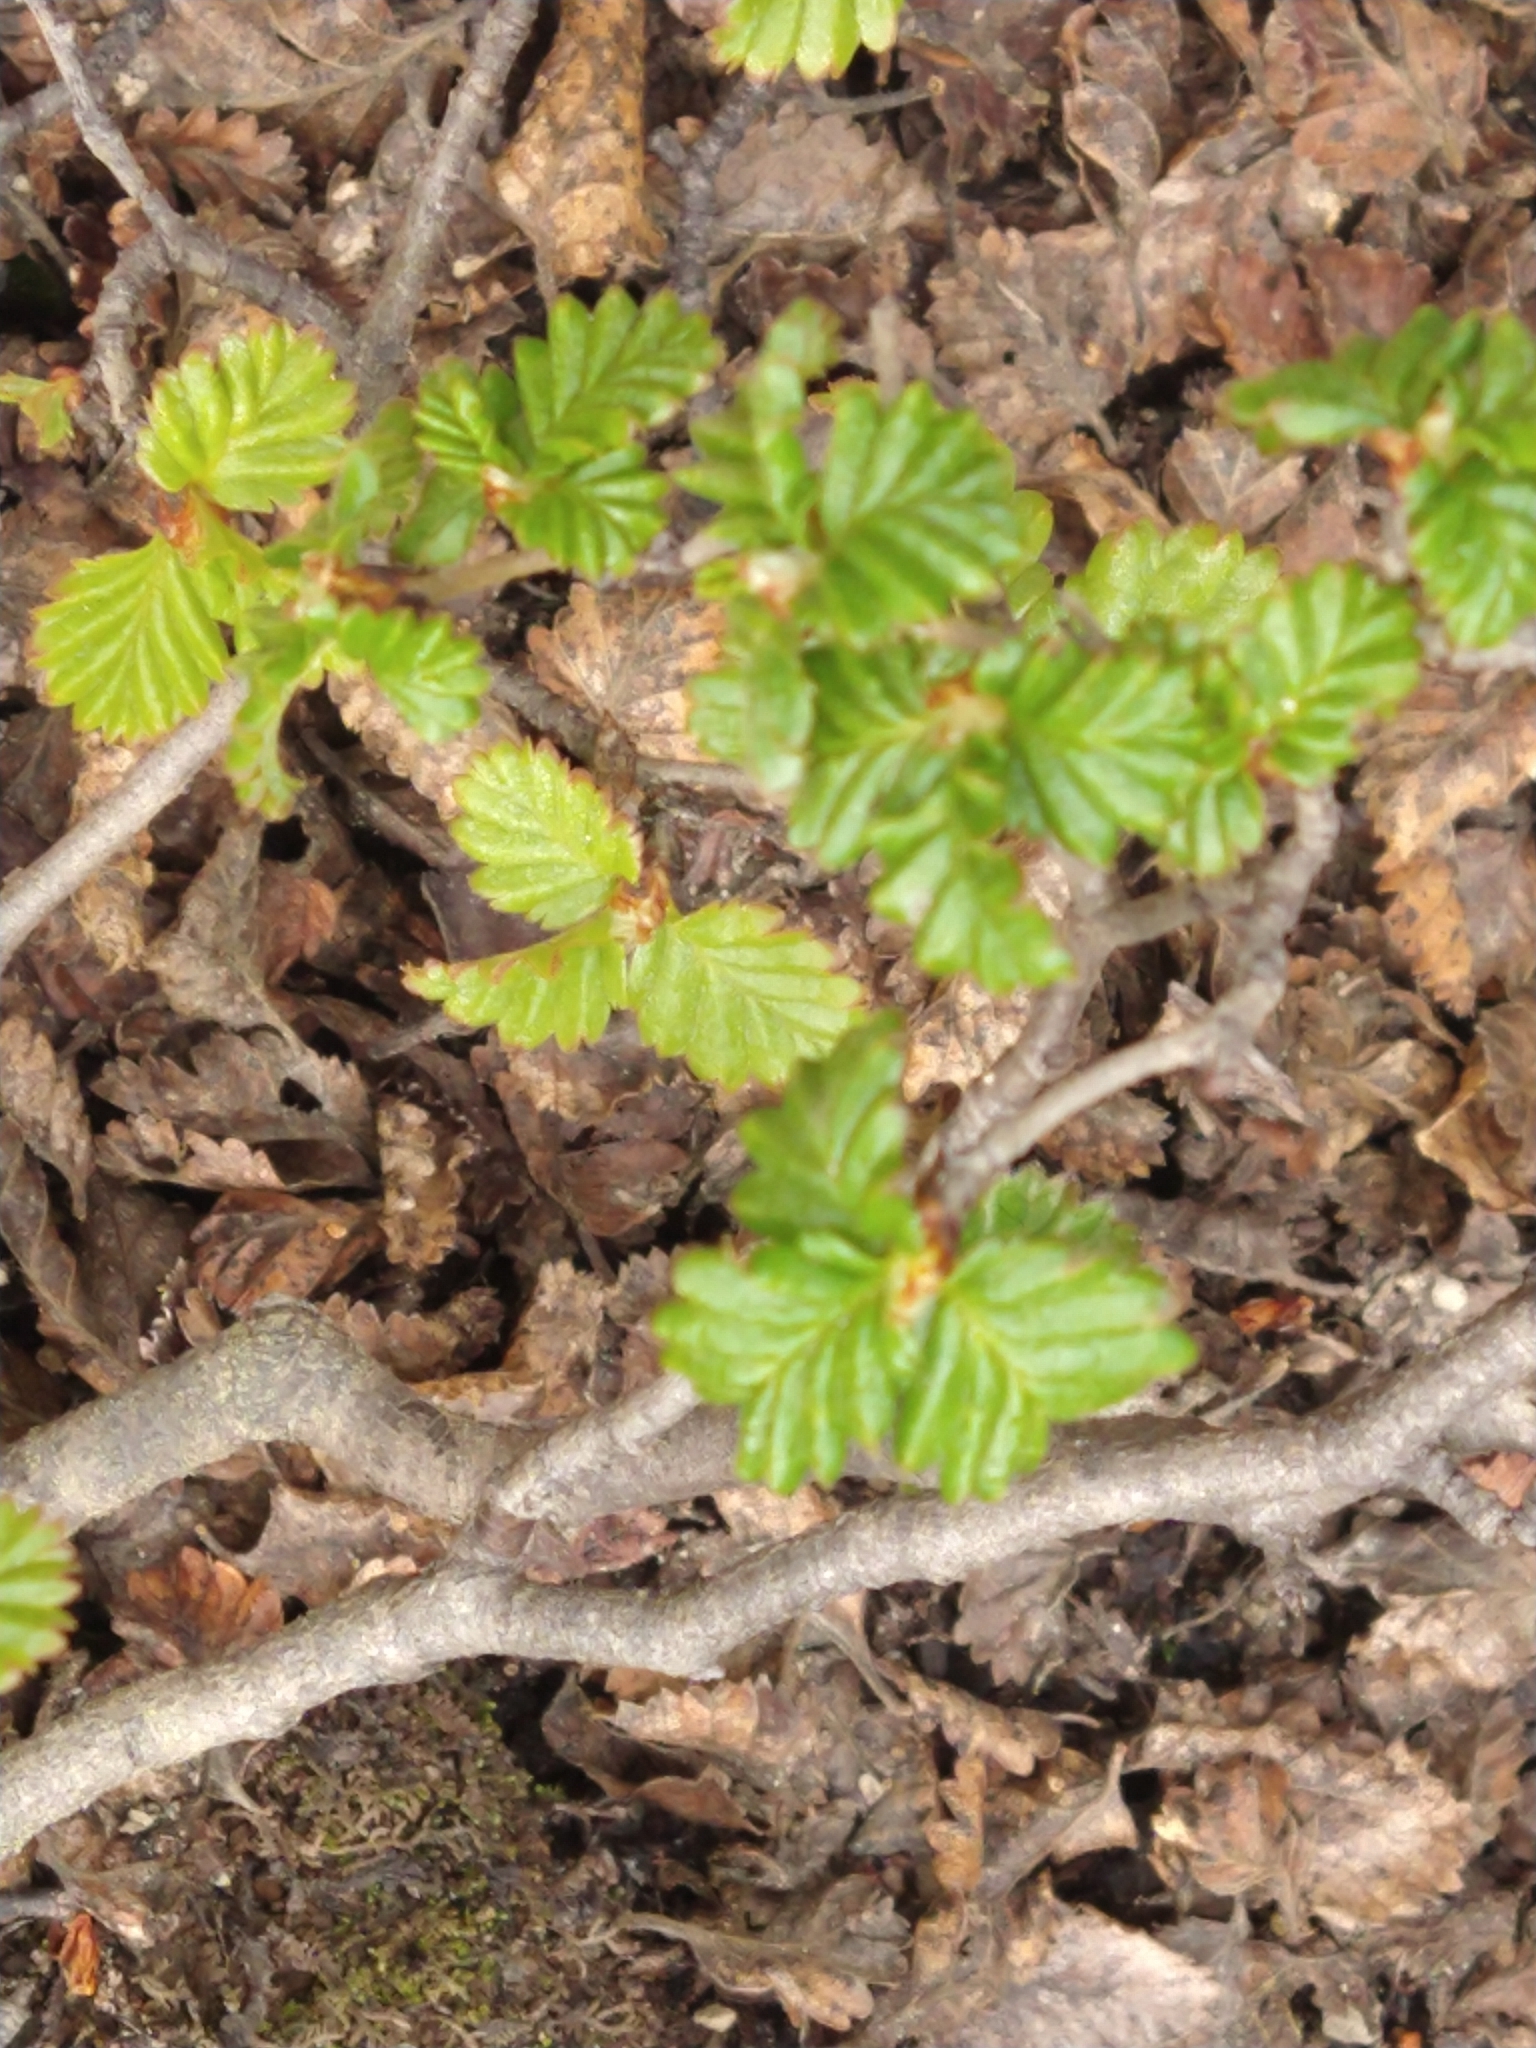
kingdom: Plantae
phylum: Tracheophyta
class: Magnoliopsida
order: Fagales
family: Nothofagaceae
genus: Nothofagus
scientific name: Nothofagus pumilio
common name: Lenga beech
